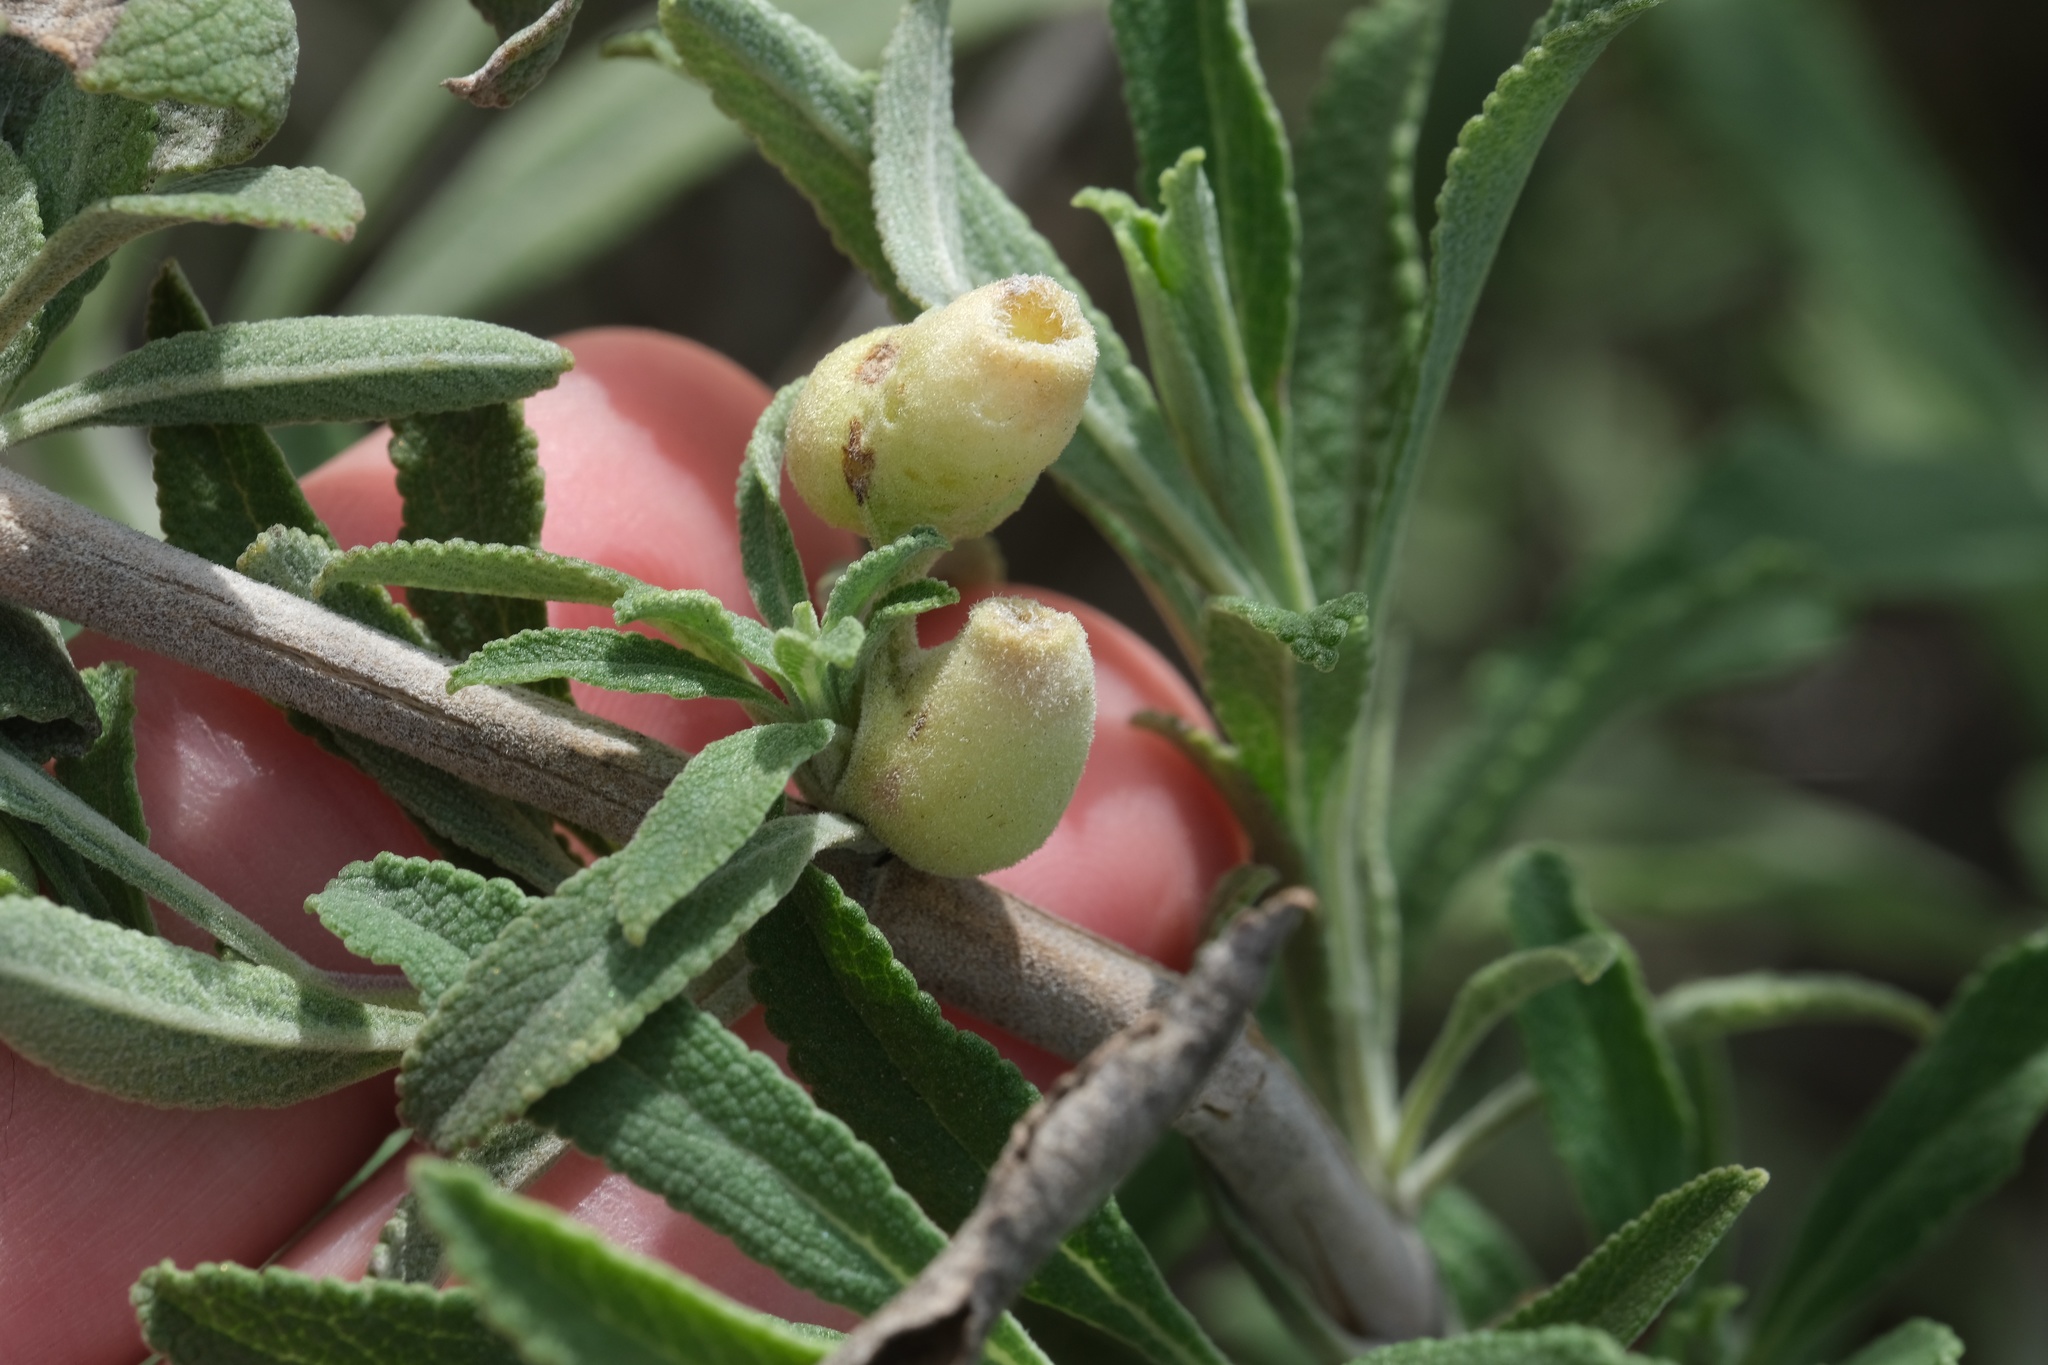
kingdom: Animalia
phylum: Arthropoda
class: Insecta
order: Diptera
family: Cecidomyiidae
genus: Rhopalomyia
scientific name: Rhopalomyia audibertiae
